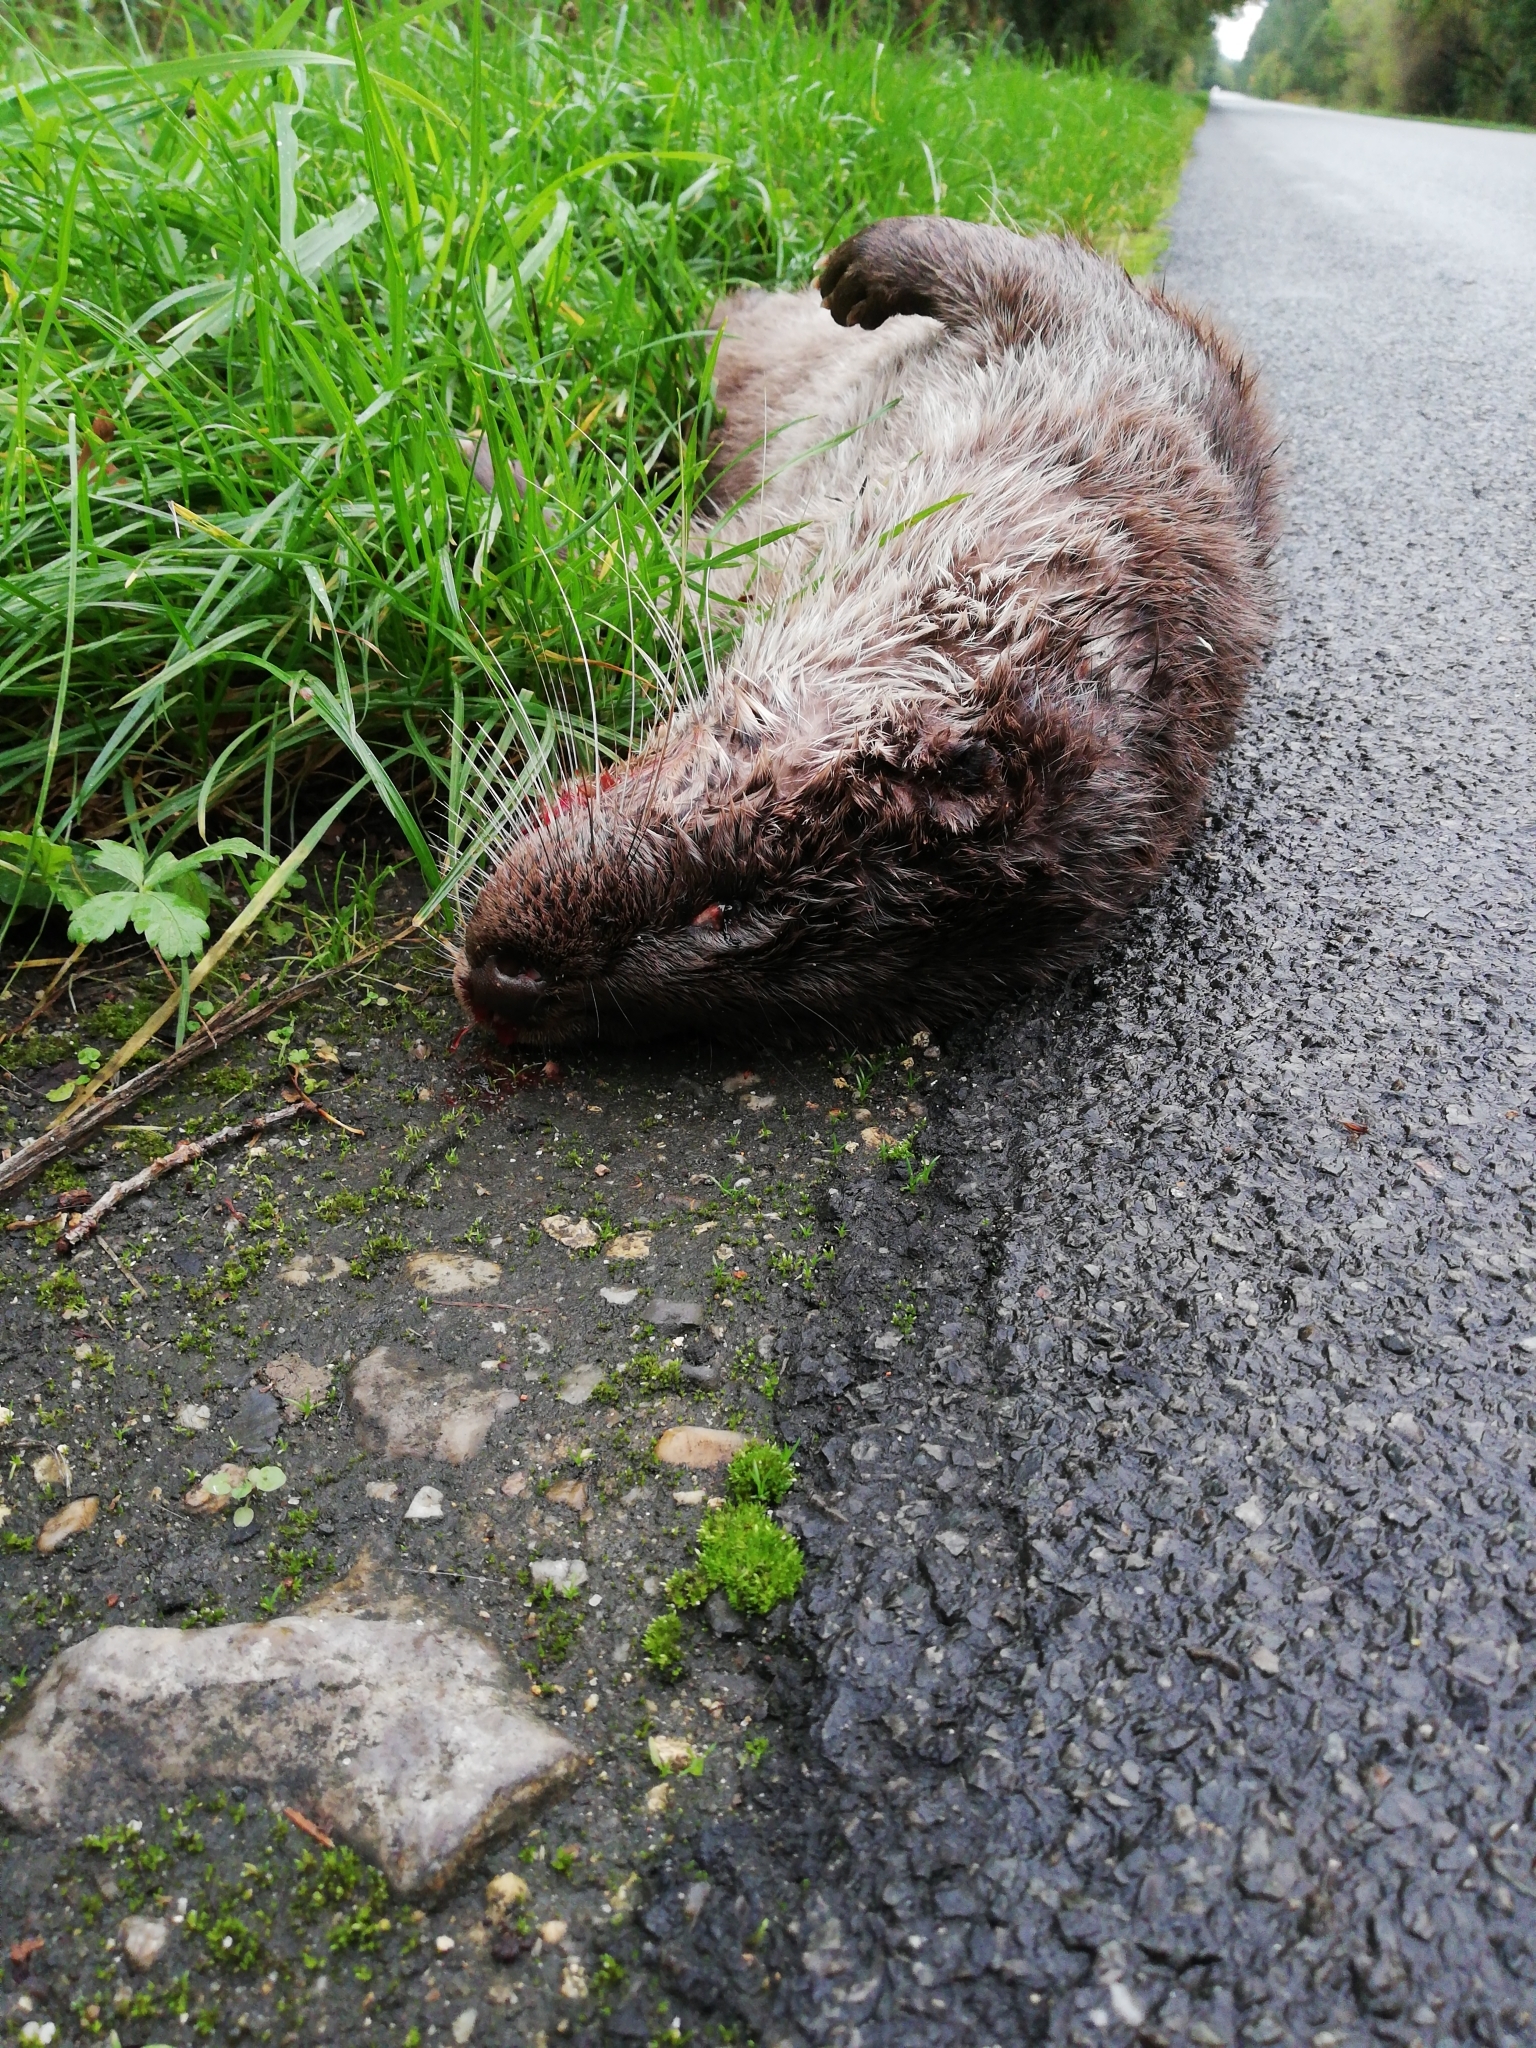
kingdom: Animalia
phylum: Chordata
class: Mammalia
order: Carnivora
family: Mustelidae
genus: Lutra
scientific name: Lutra lutra
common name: European otter
